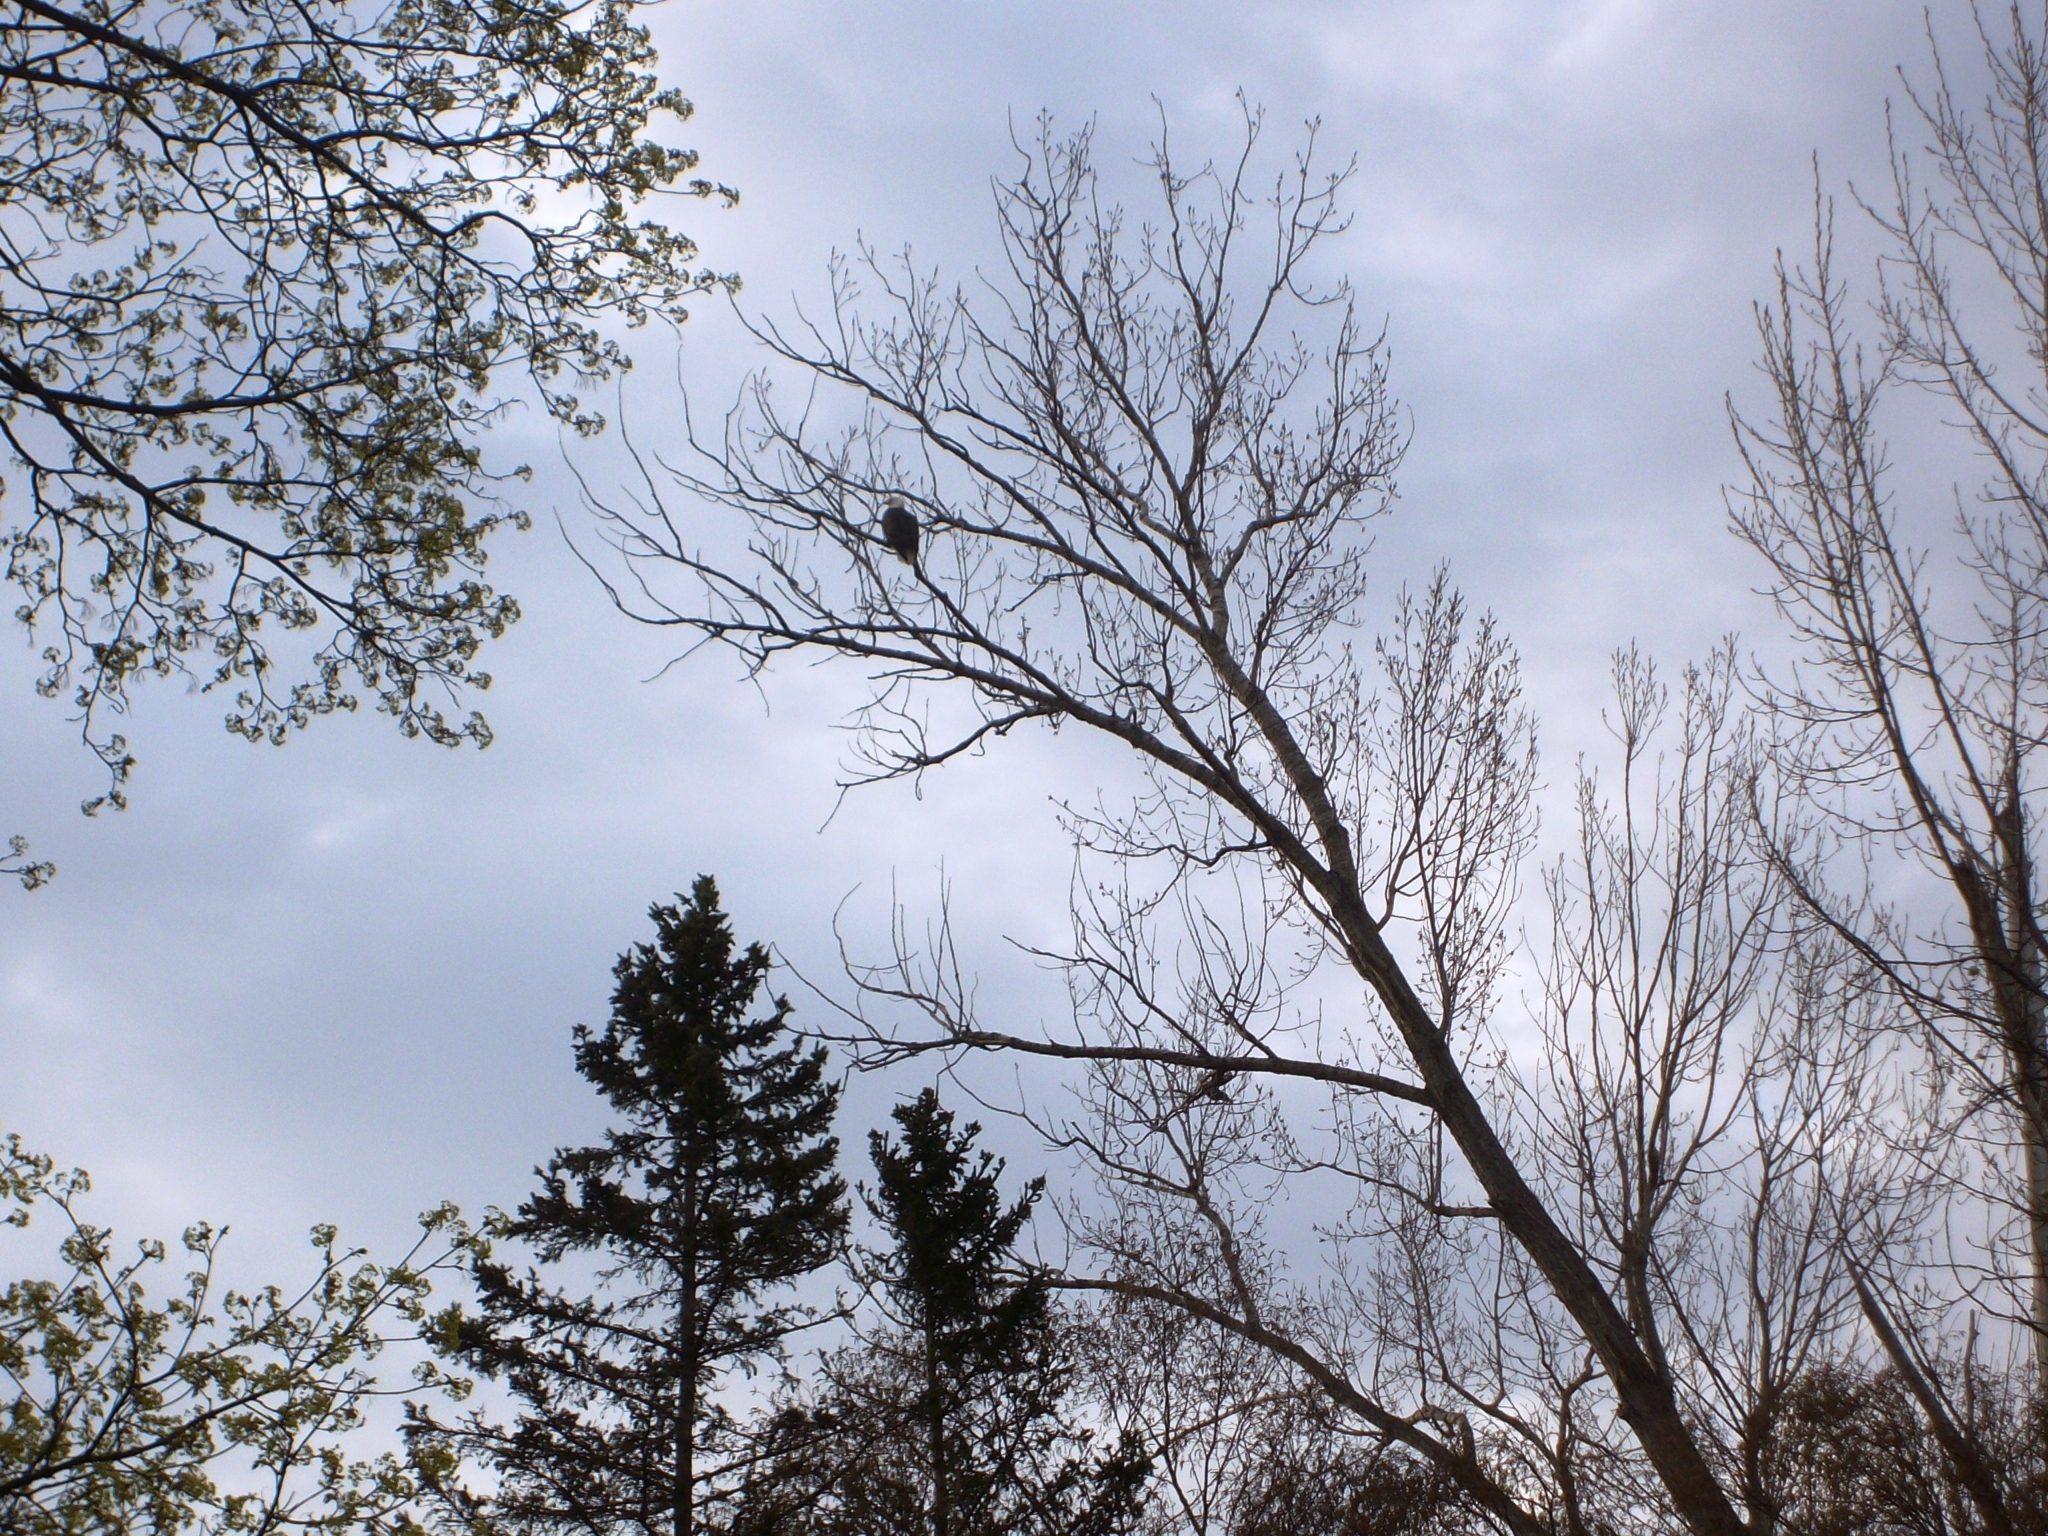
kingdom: Animalia
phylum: Chordata
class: Aves
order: Accipitriformes
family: Accipitridae
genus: Haliaeetus
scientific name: Haliaeetus leucocephalus
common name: Bald eagle
